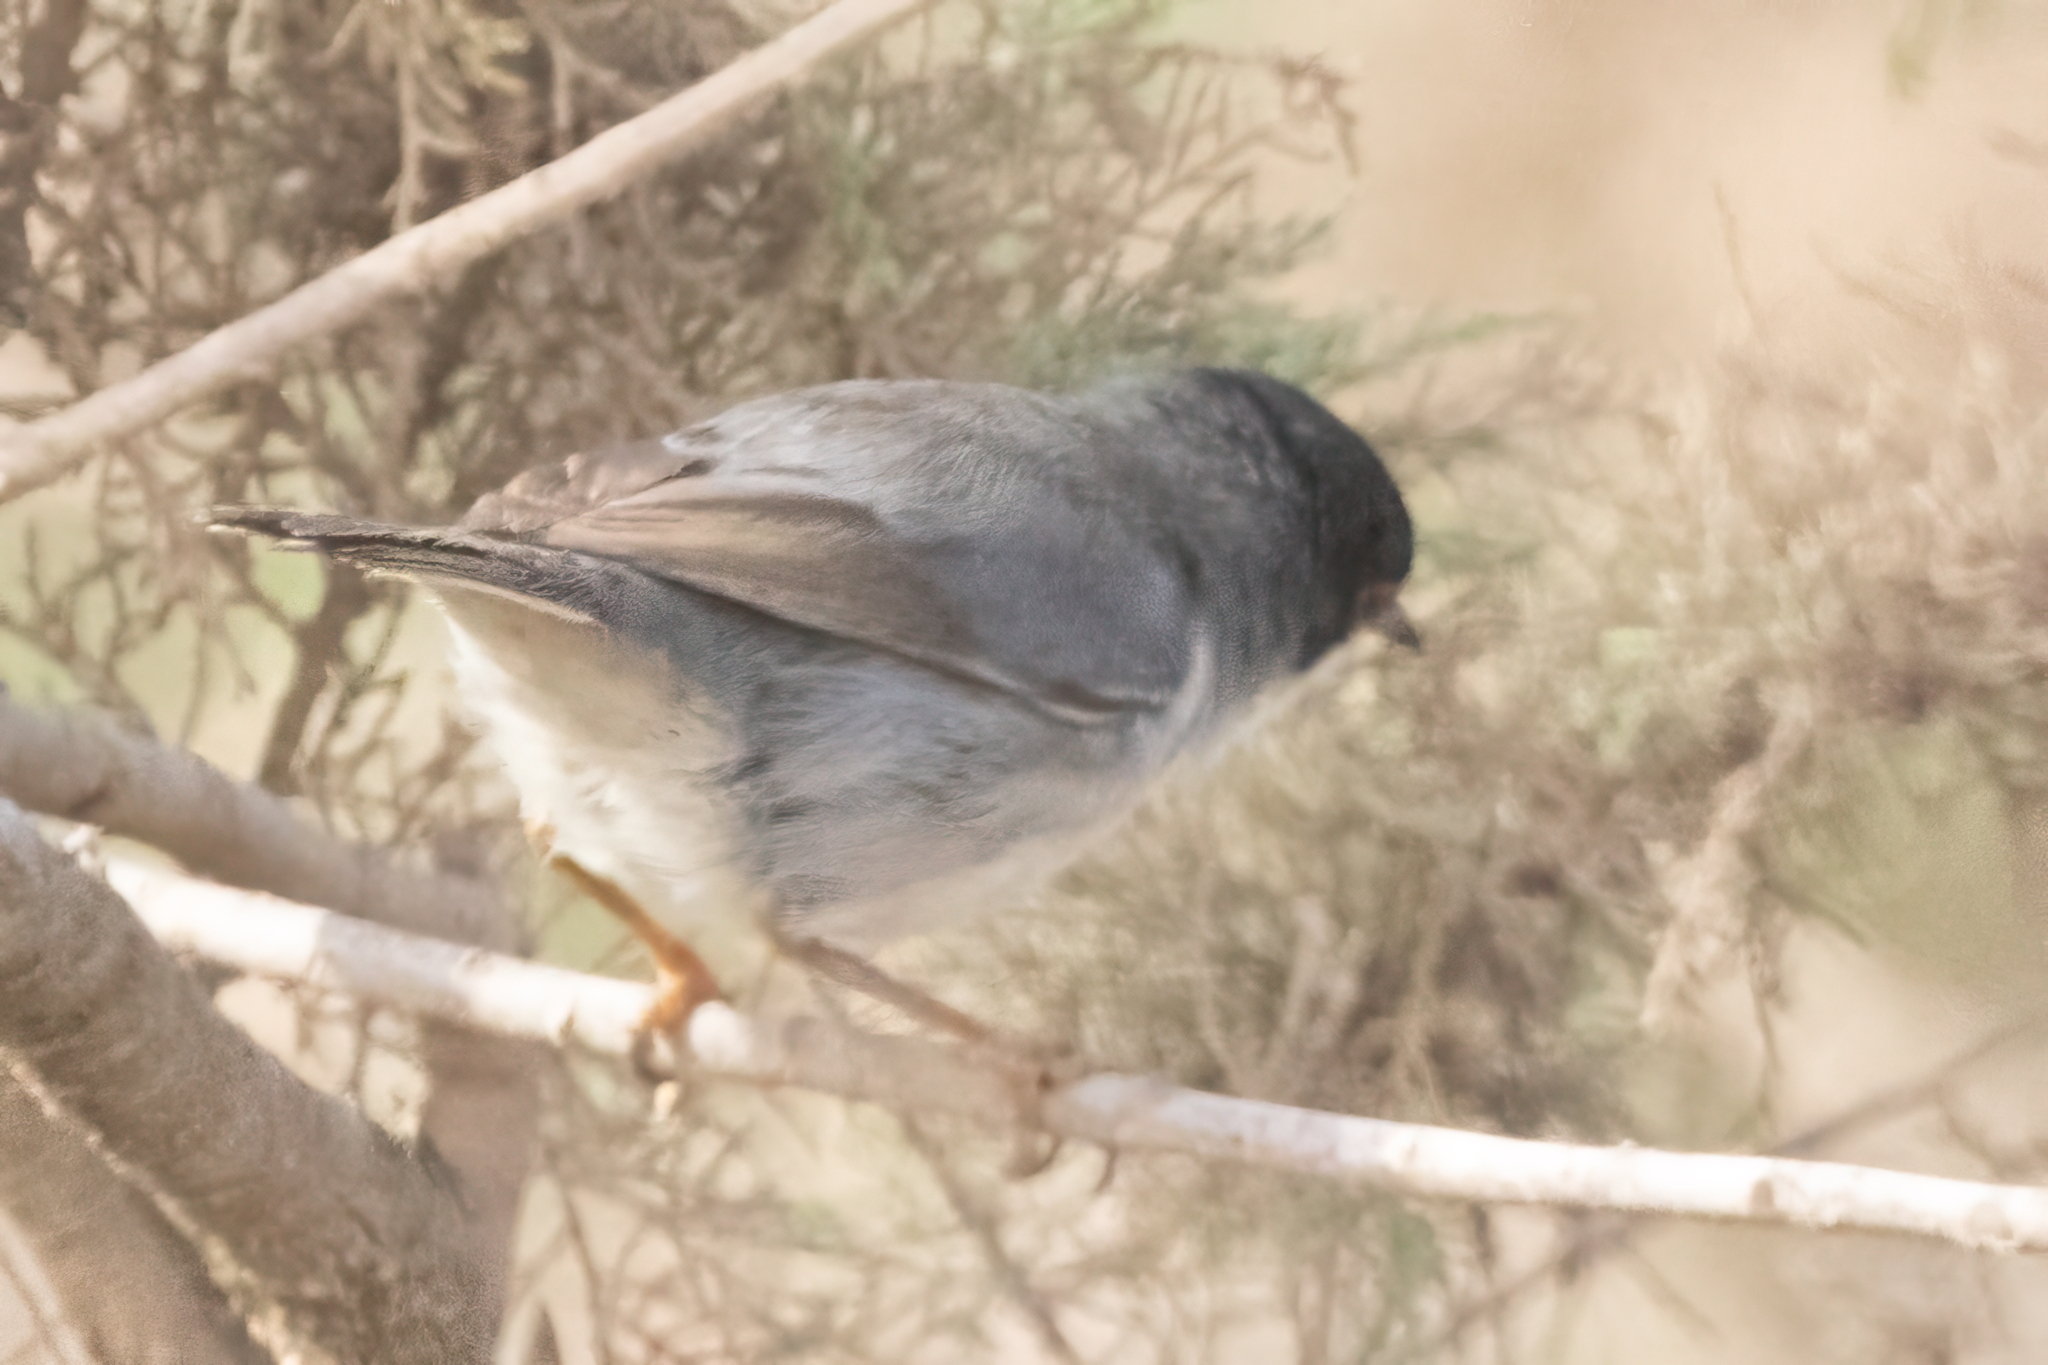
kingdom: Animalia
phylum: Chordata
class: Aves
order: Passeriformes
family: Sylviidae
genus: Curruca
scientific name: Curruca melanocephala
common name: Sardinian warbler
